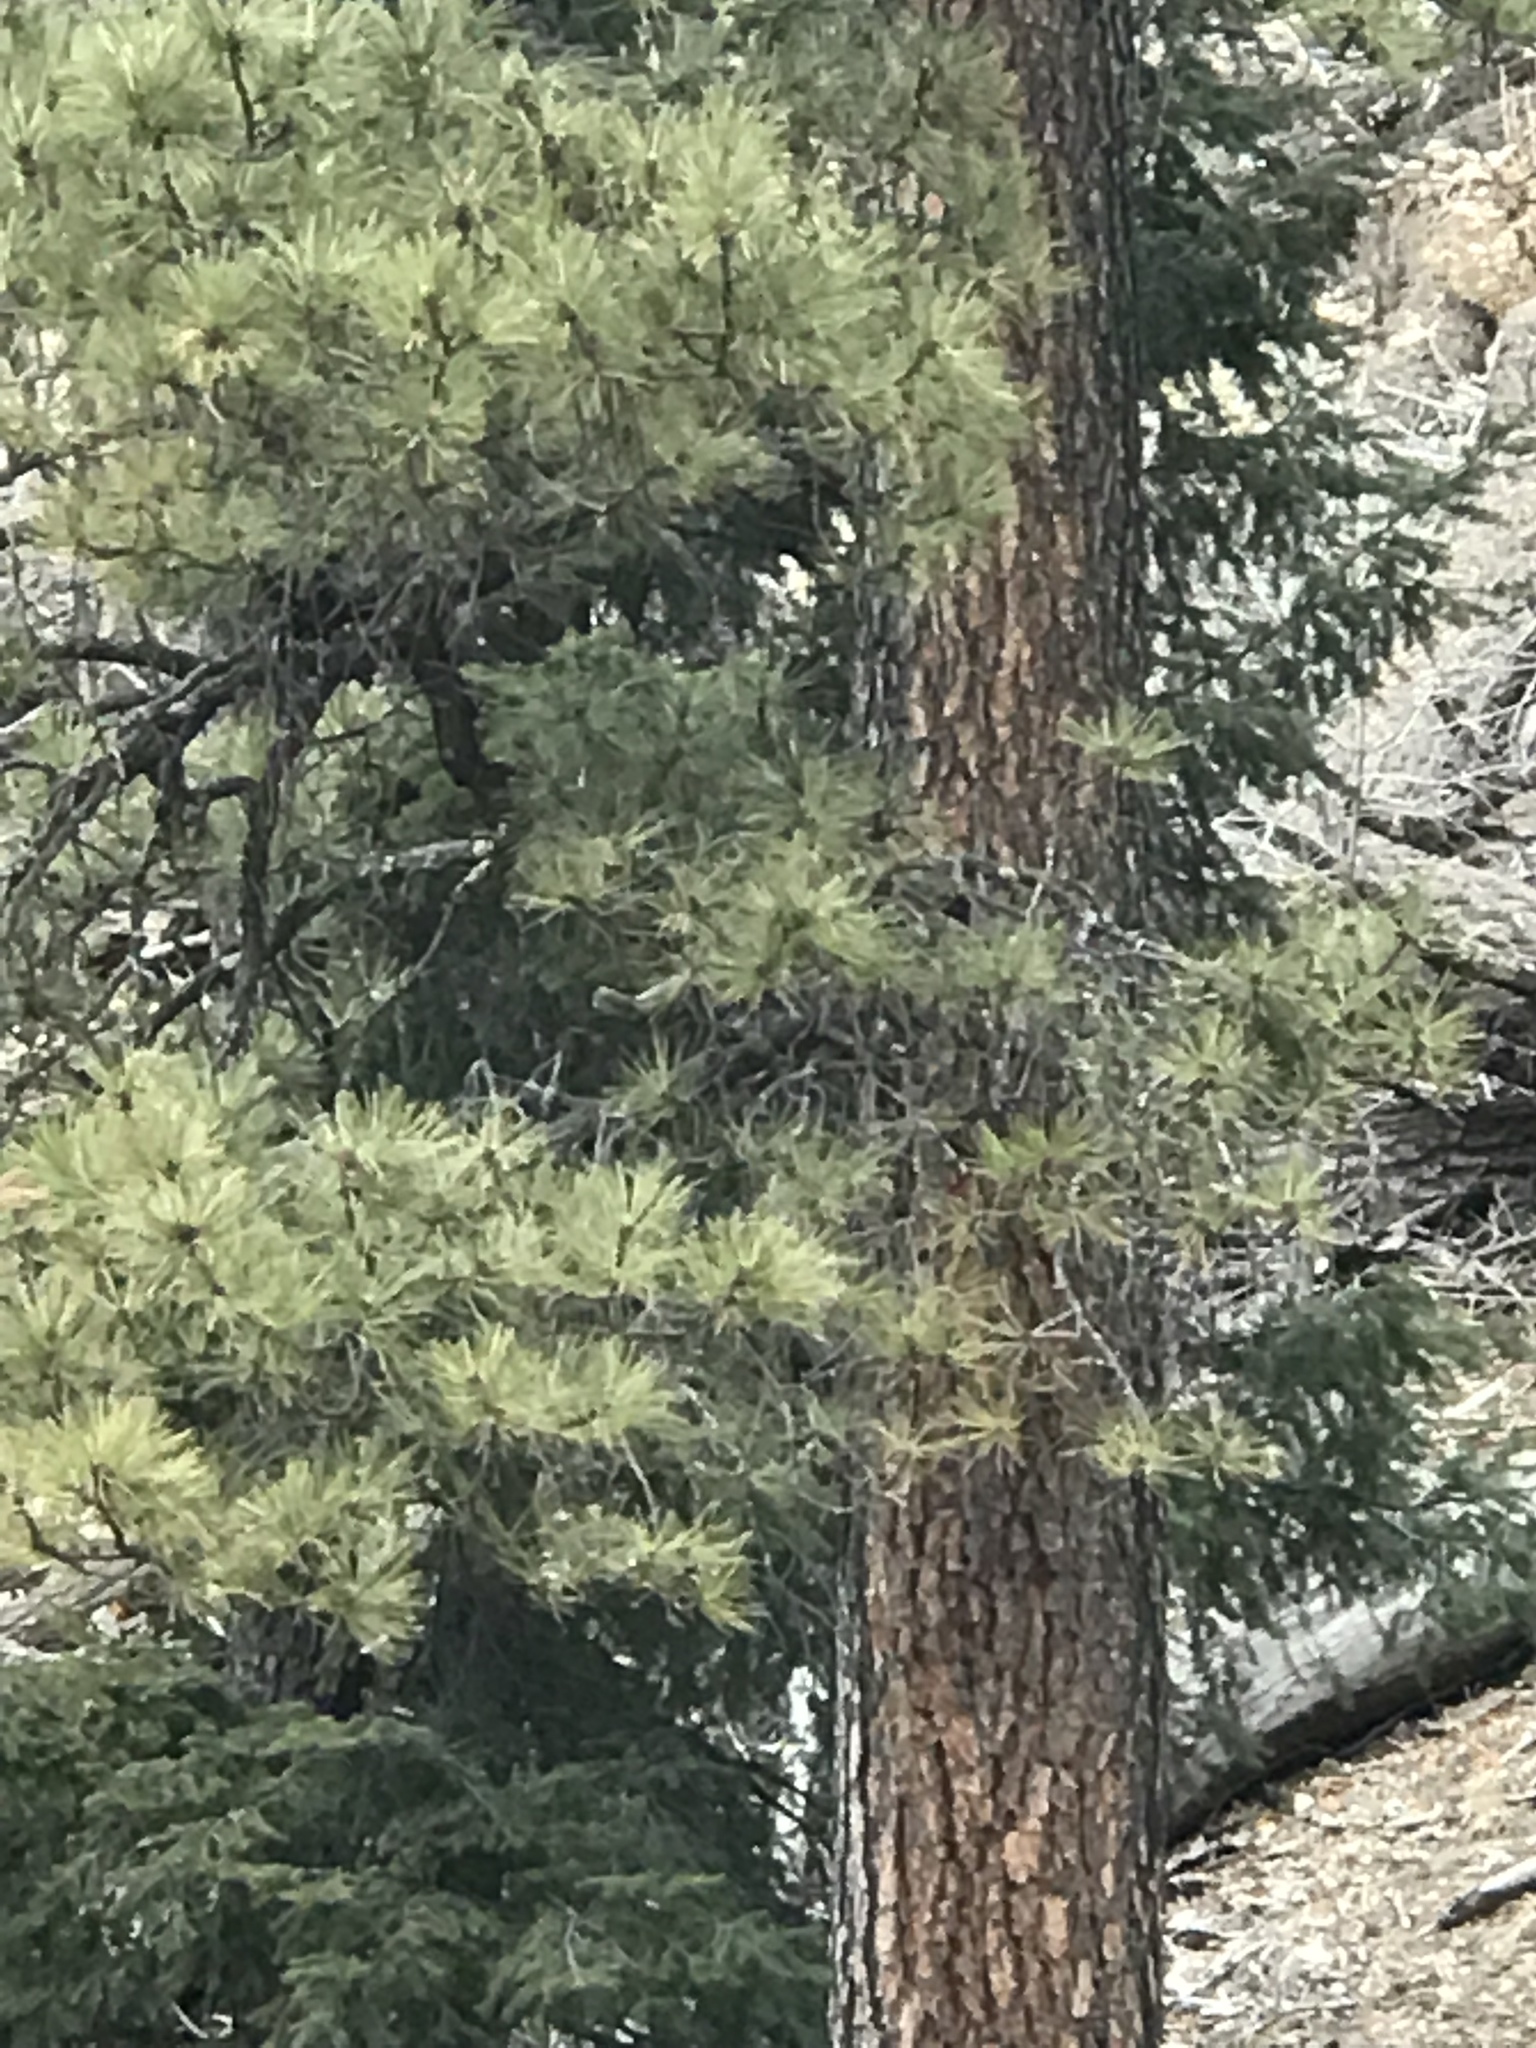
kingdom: Plantae
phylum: Tracheophyta
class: Pinopsida
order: Pinales
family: Pinaceae
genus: Pinus
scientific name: Pinus ponderosa
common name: Western yellow-pine
